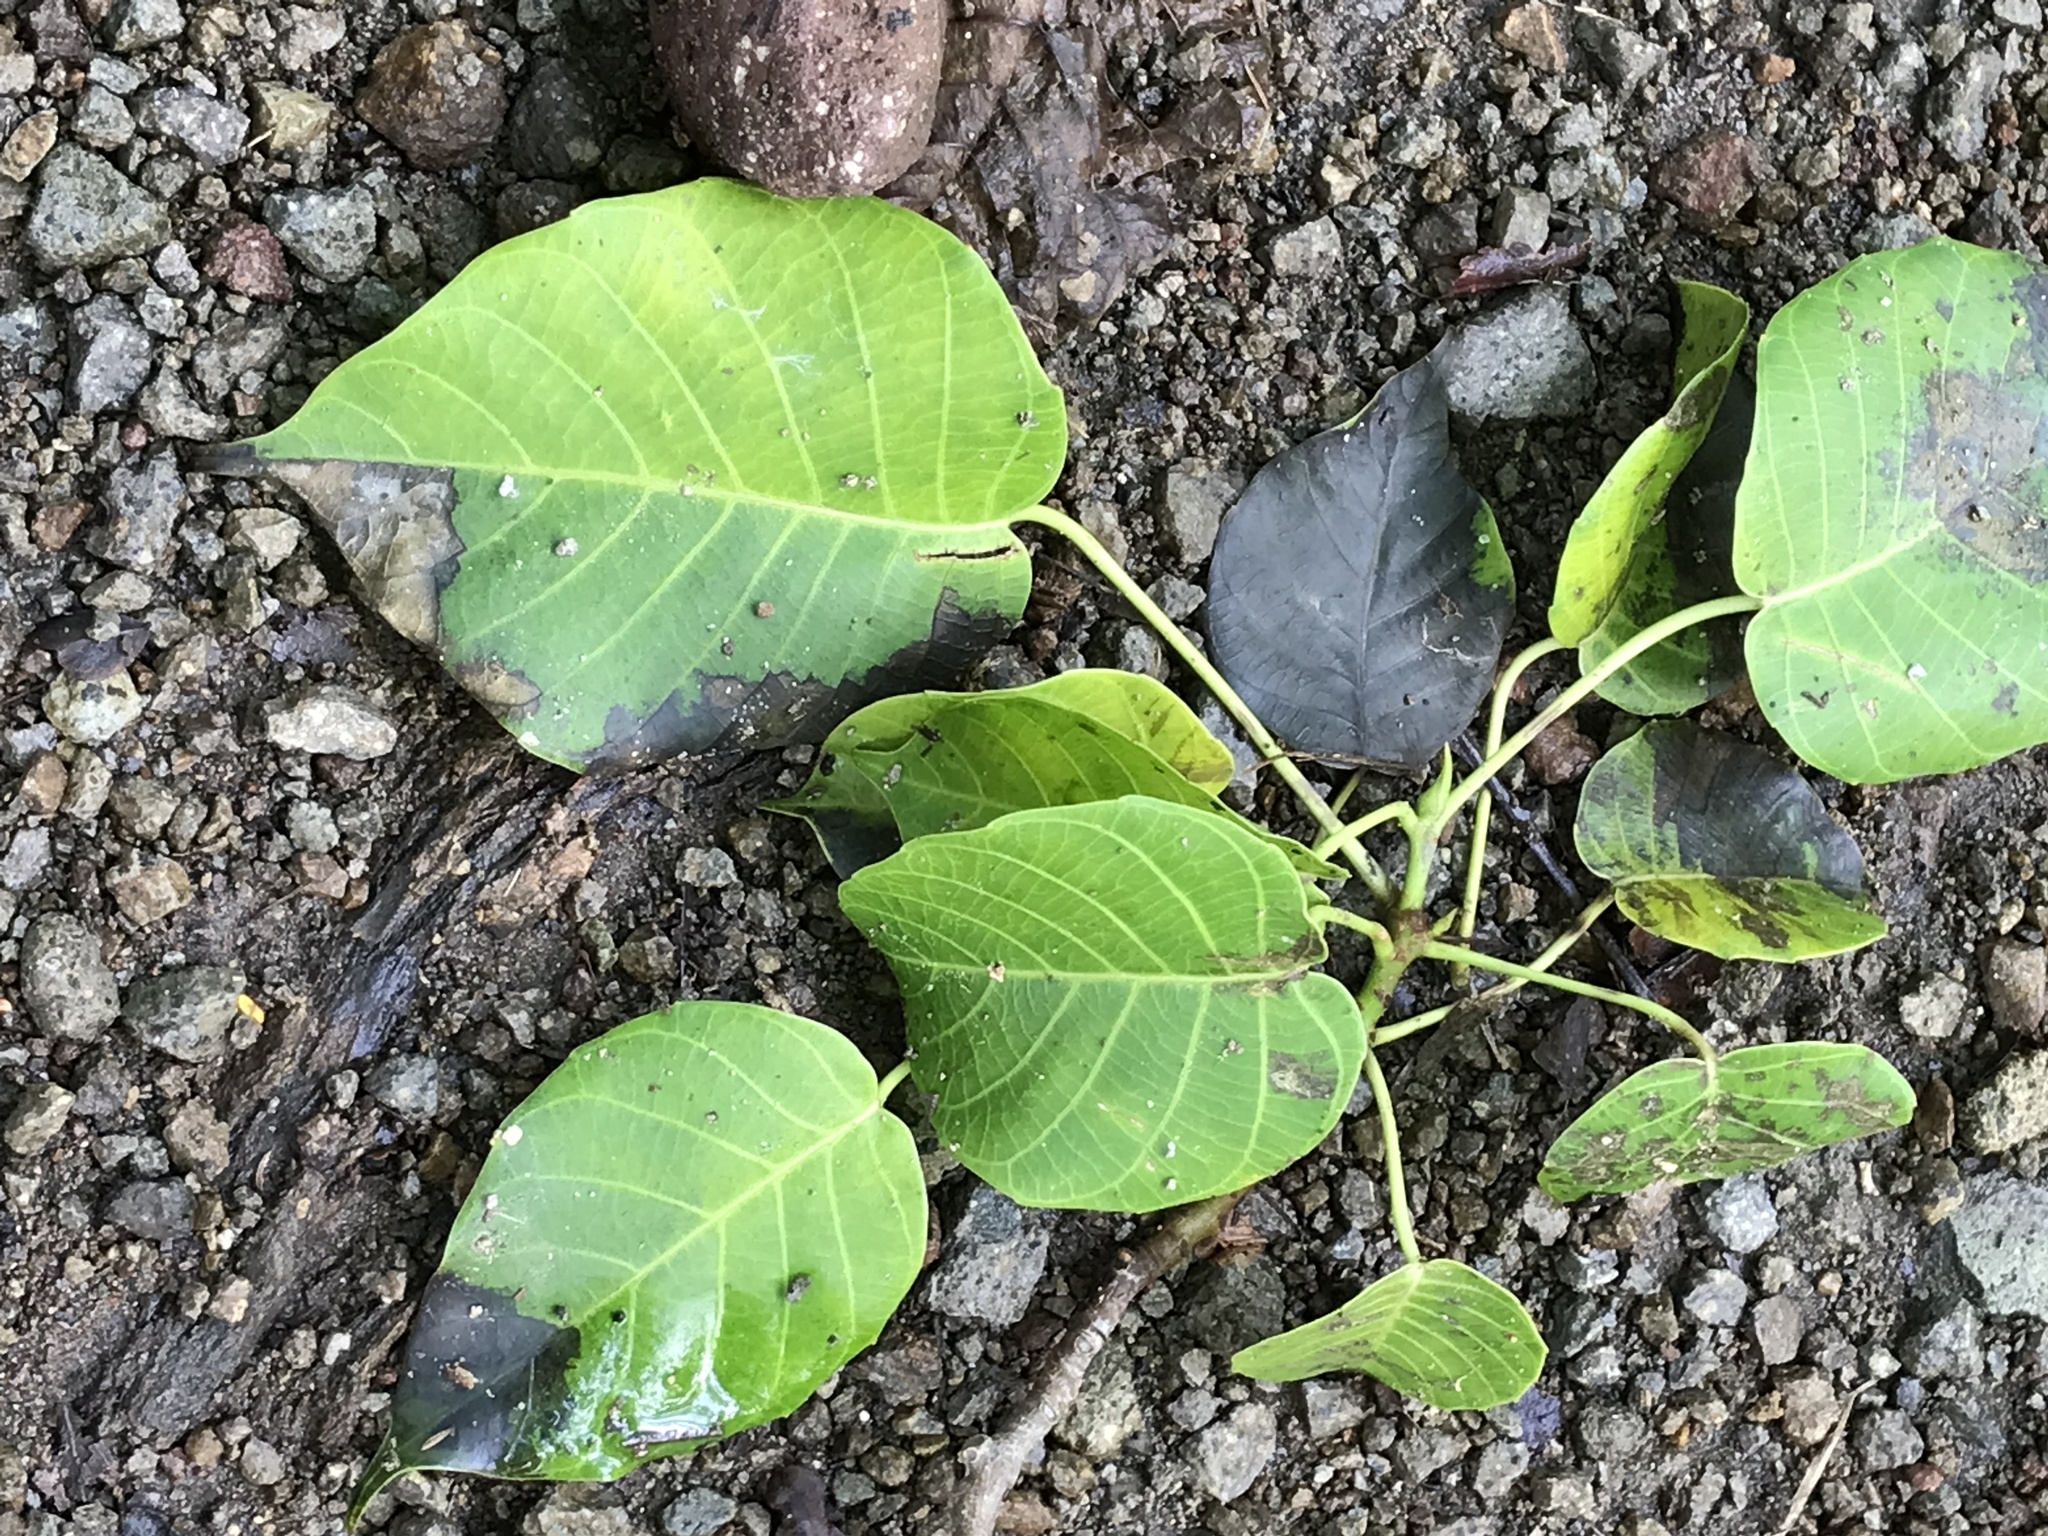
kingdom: Plantae
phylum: Tracheophyta
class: Magnoliopsida
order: Malpighiales
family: Euphorbiaceae
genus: Hura
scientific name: Hura crepitans
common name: Sandboxtree
